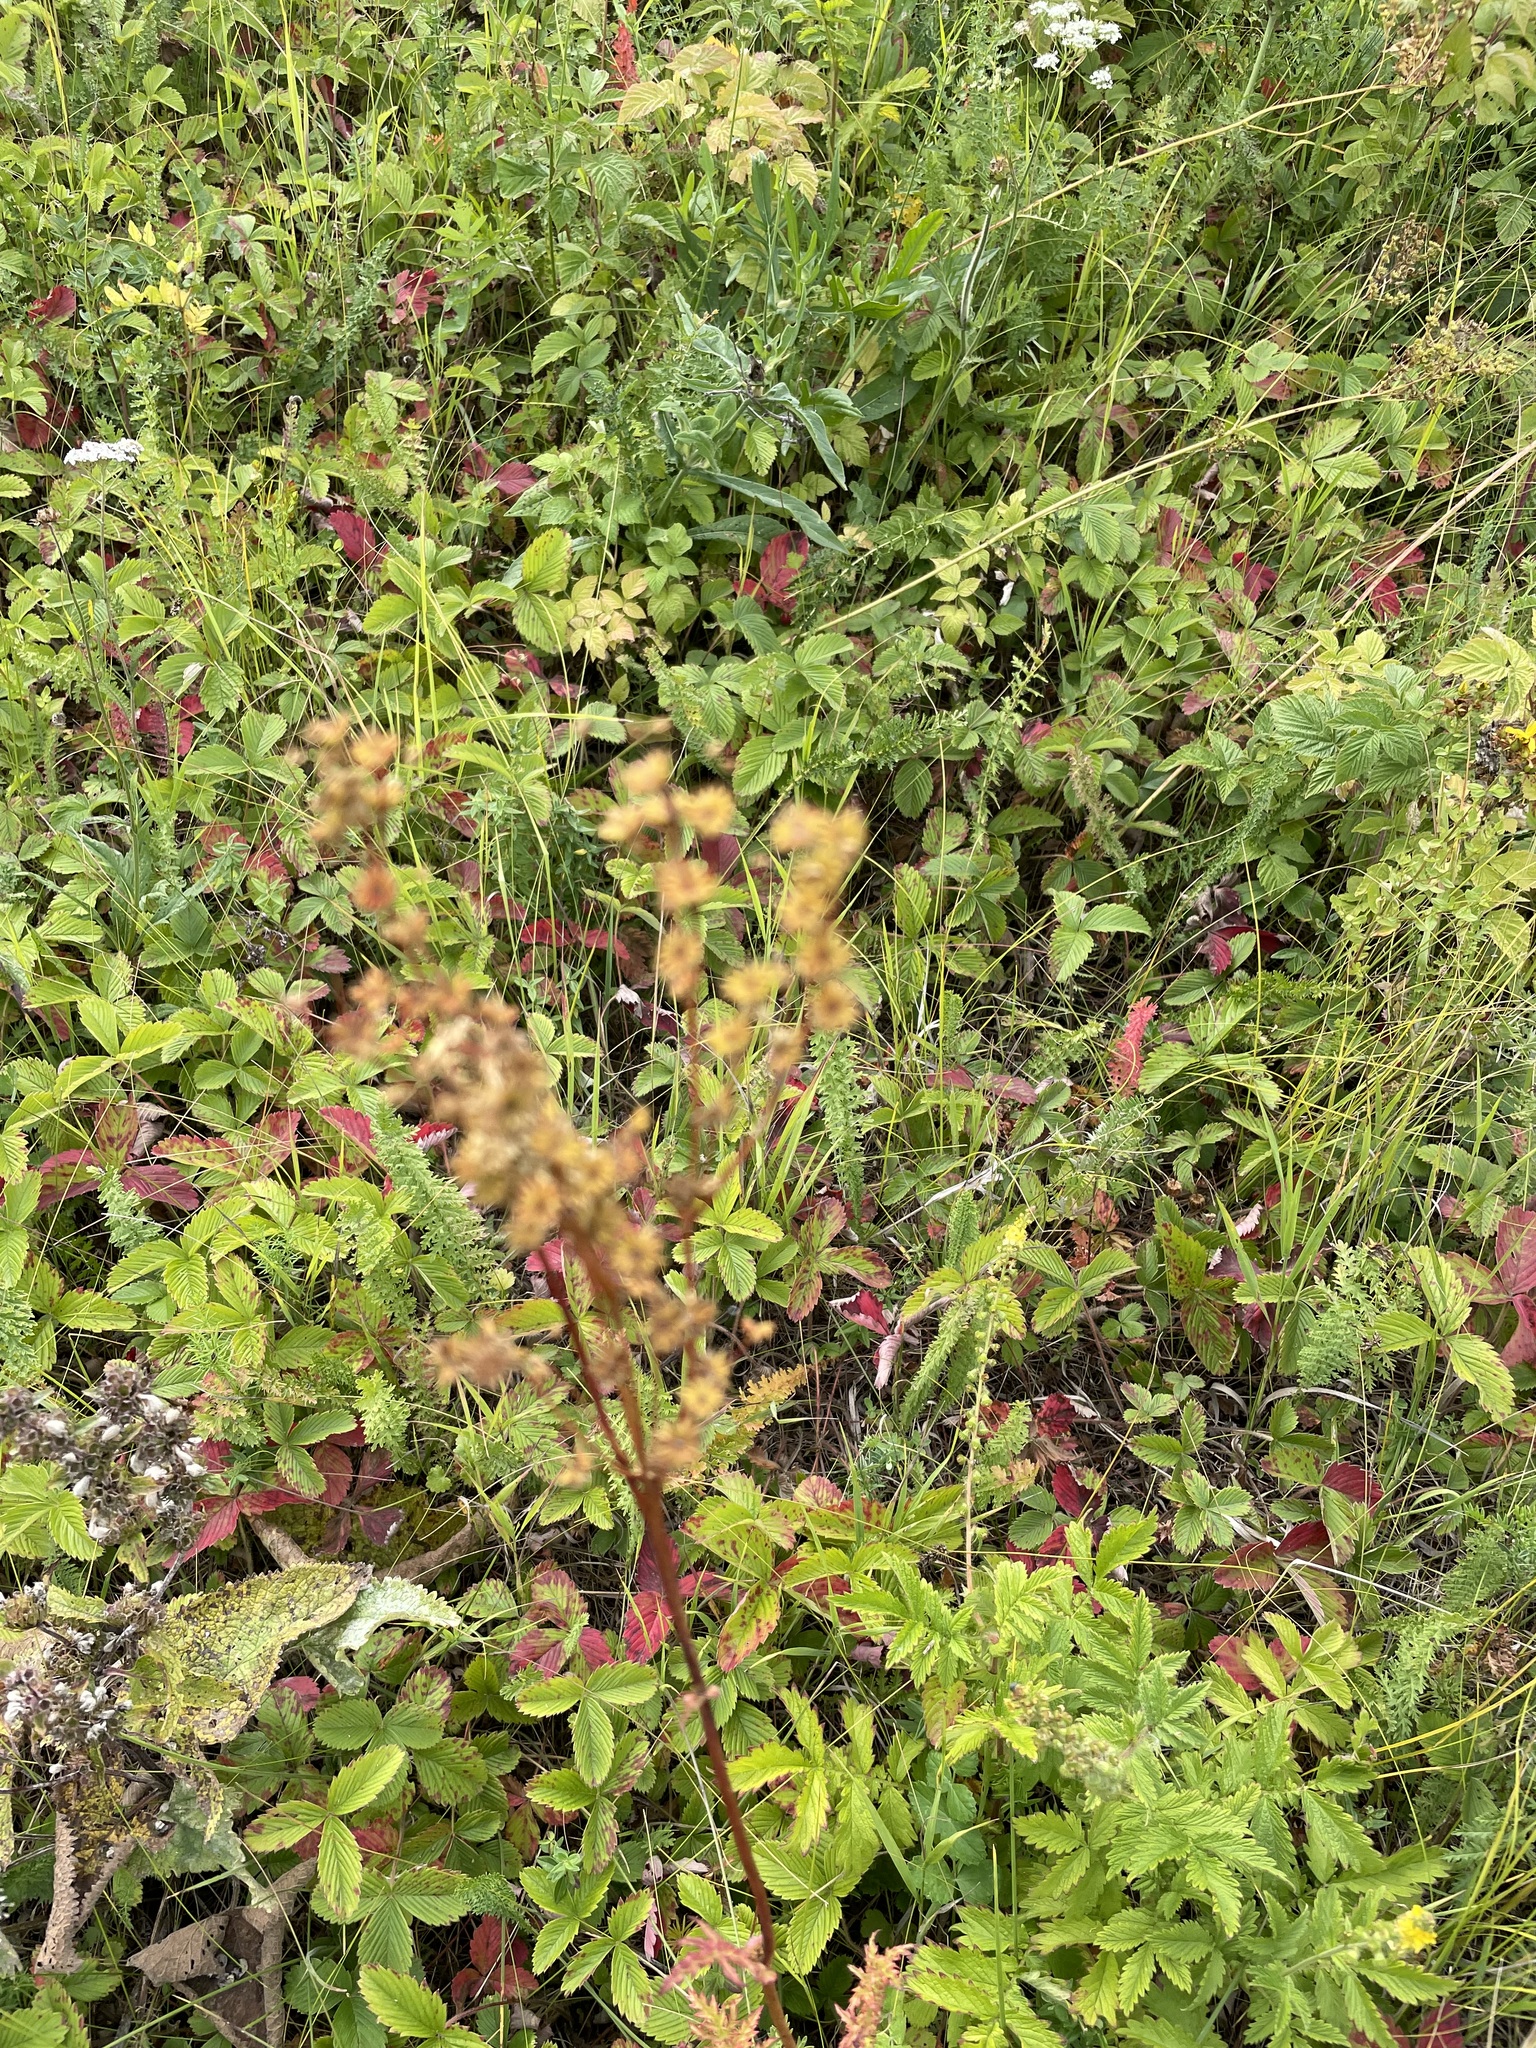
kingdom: Plantae
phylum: Tracheophyta
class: Magnoliopsida
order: Rosales
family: Rosaceae
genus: Filipendula
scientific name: Filipendula vulgaris
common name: Dropwort
